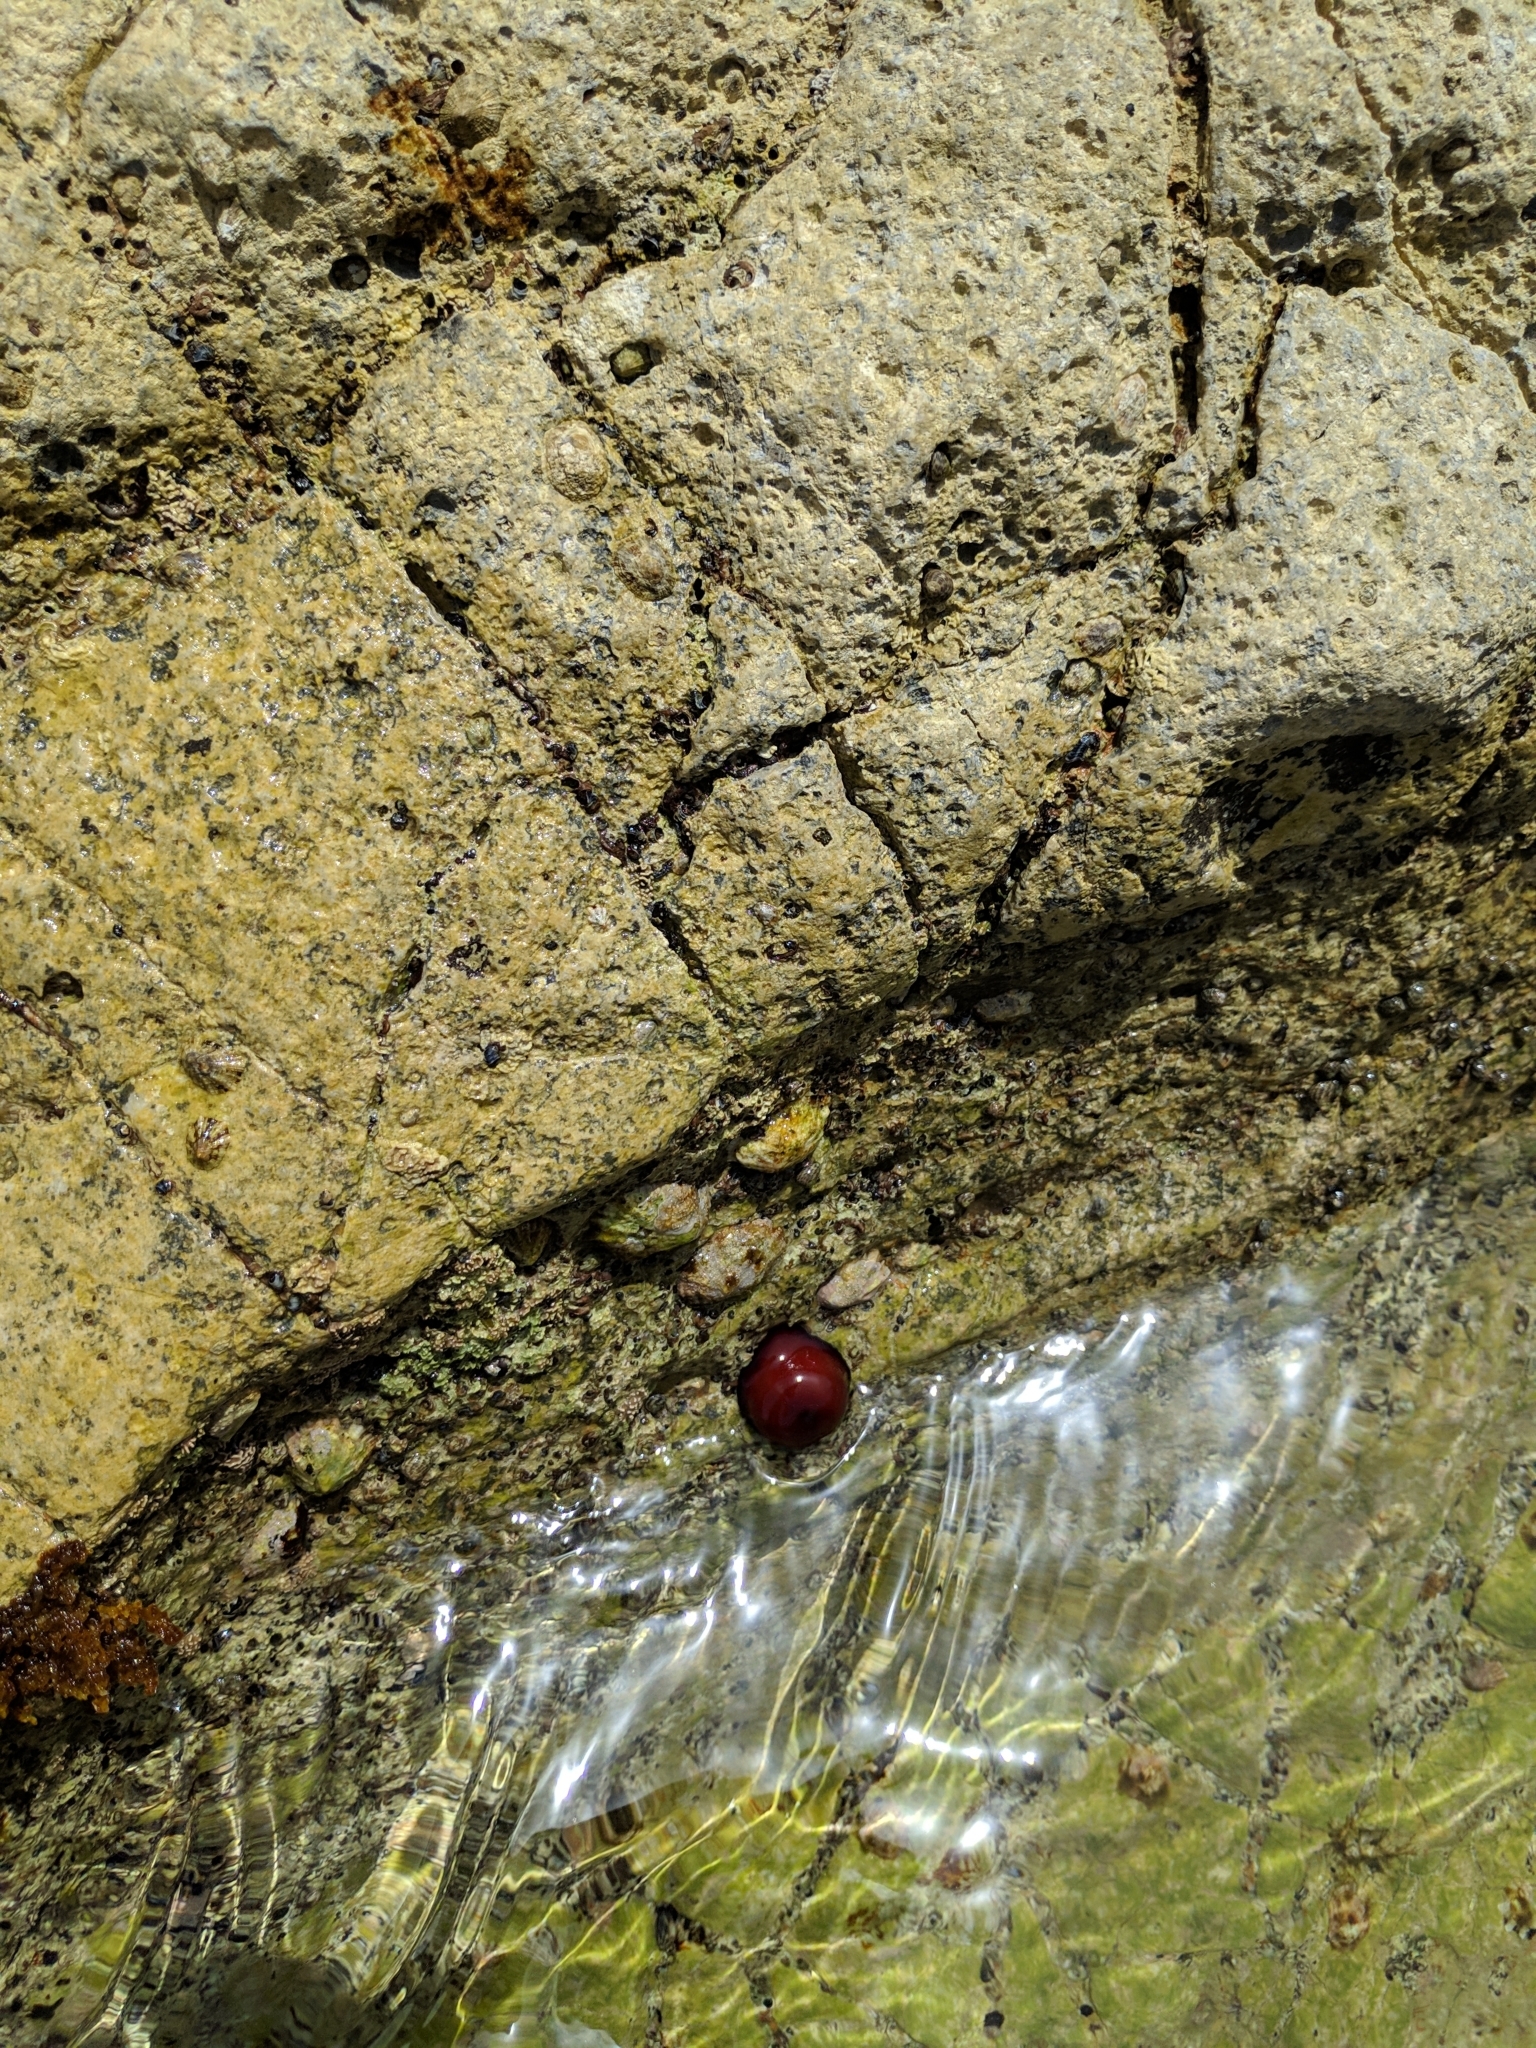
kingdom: Animalia
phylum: Cnidaria
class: Anthozoa
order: Actiniaria
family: Actiniidae
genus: Actinia
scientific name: Actinia mediterranea
